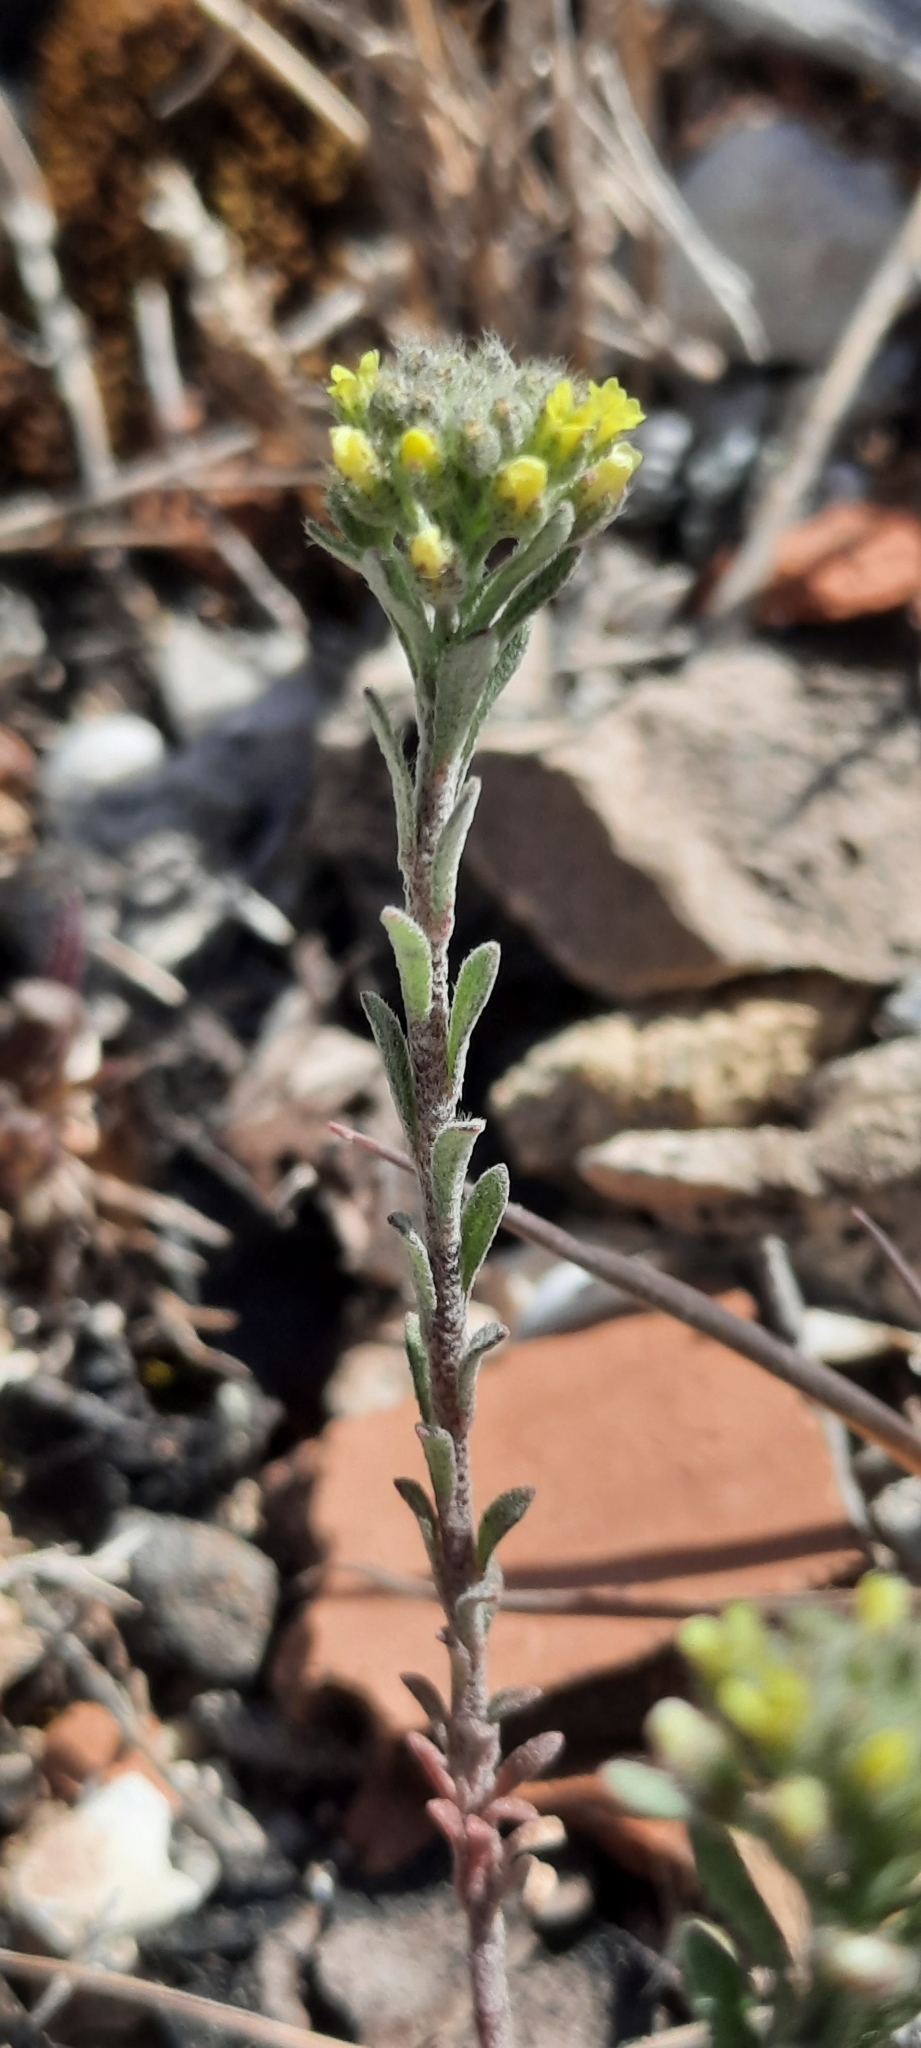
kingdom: Plantae
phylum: Tracheophyta
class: Magnoliopsida
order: Brassicales
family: Brassicaceae
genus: Alyssum
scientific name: Alyssum alyssoides
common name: Small alison
